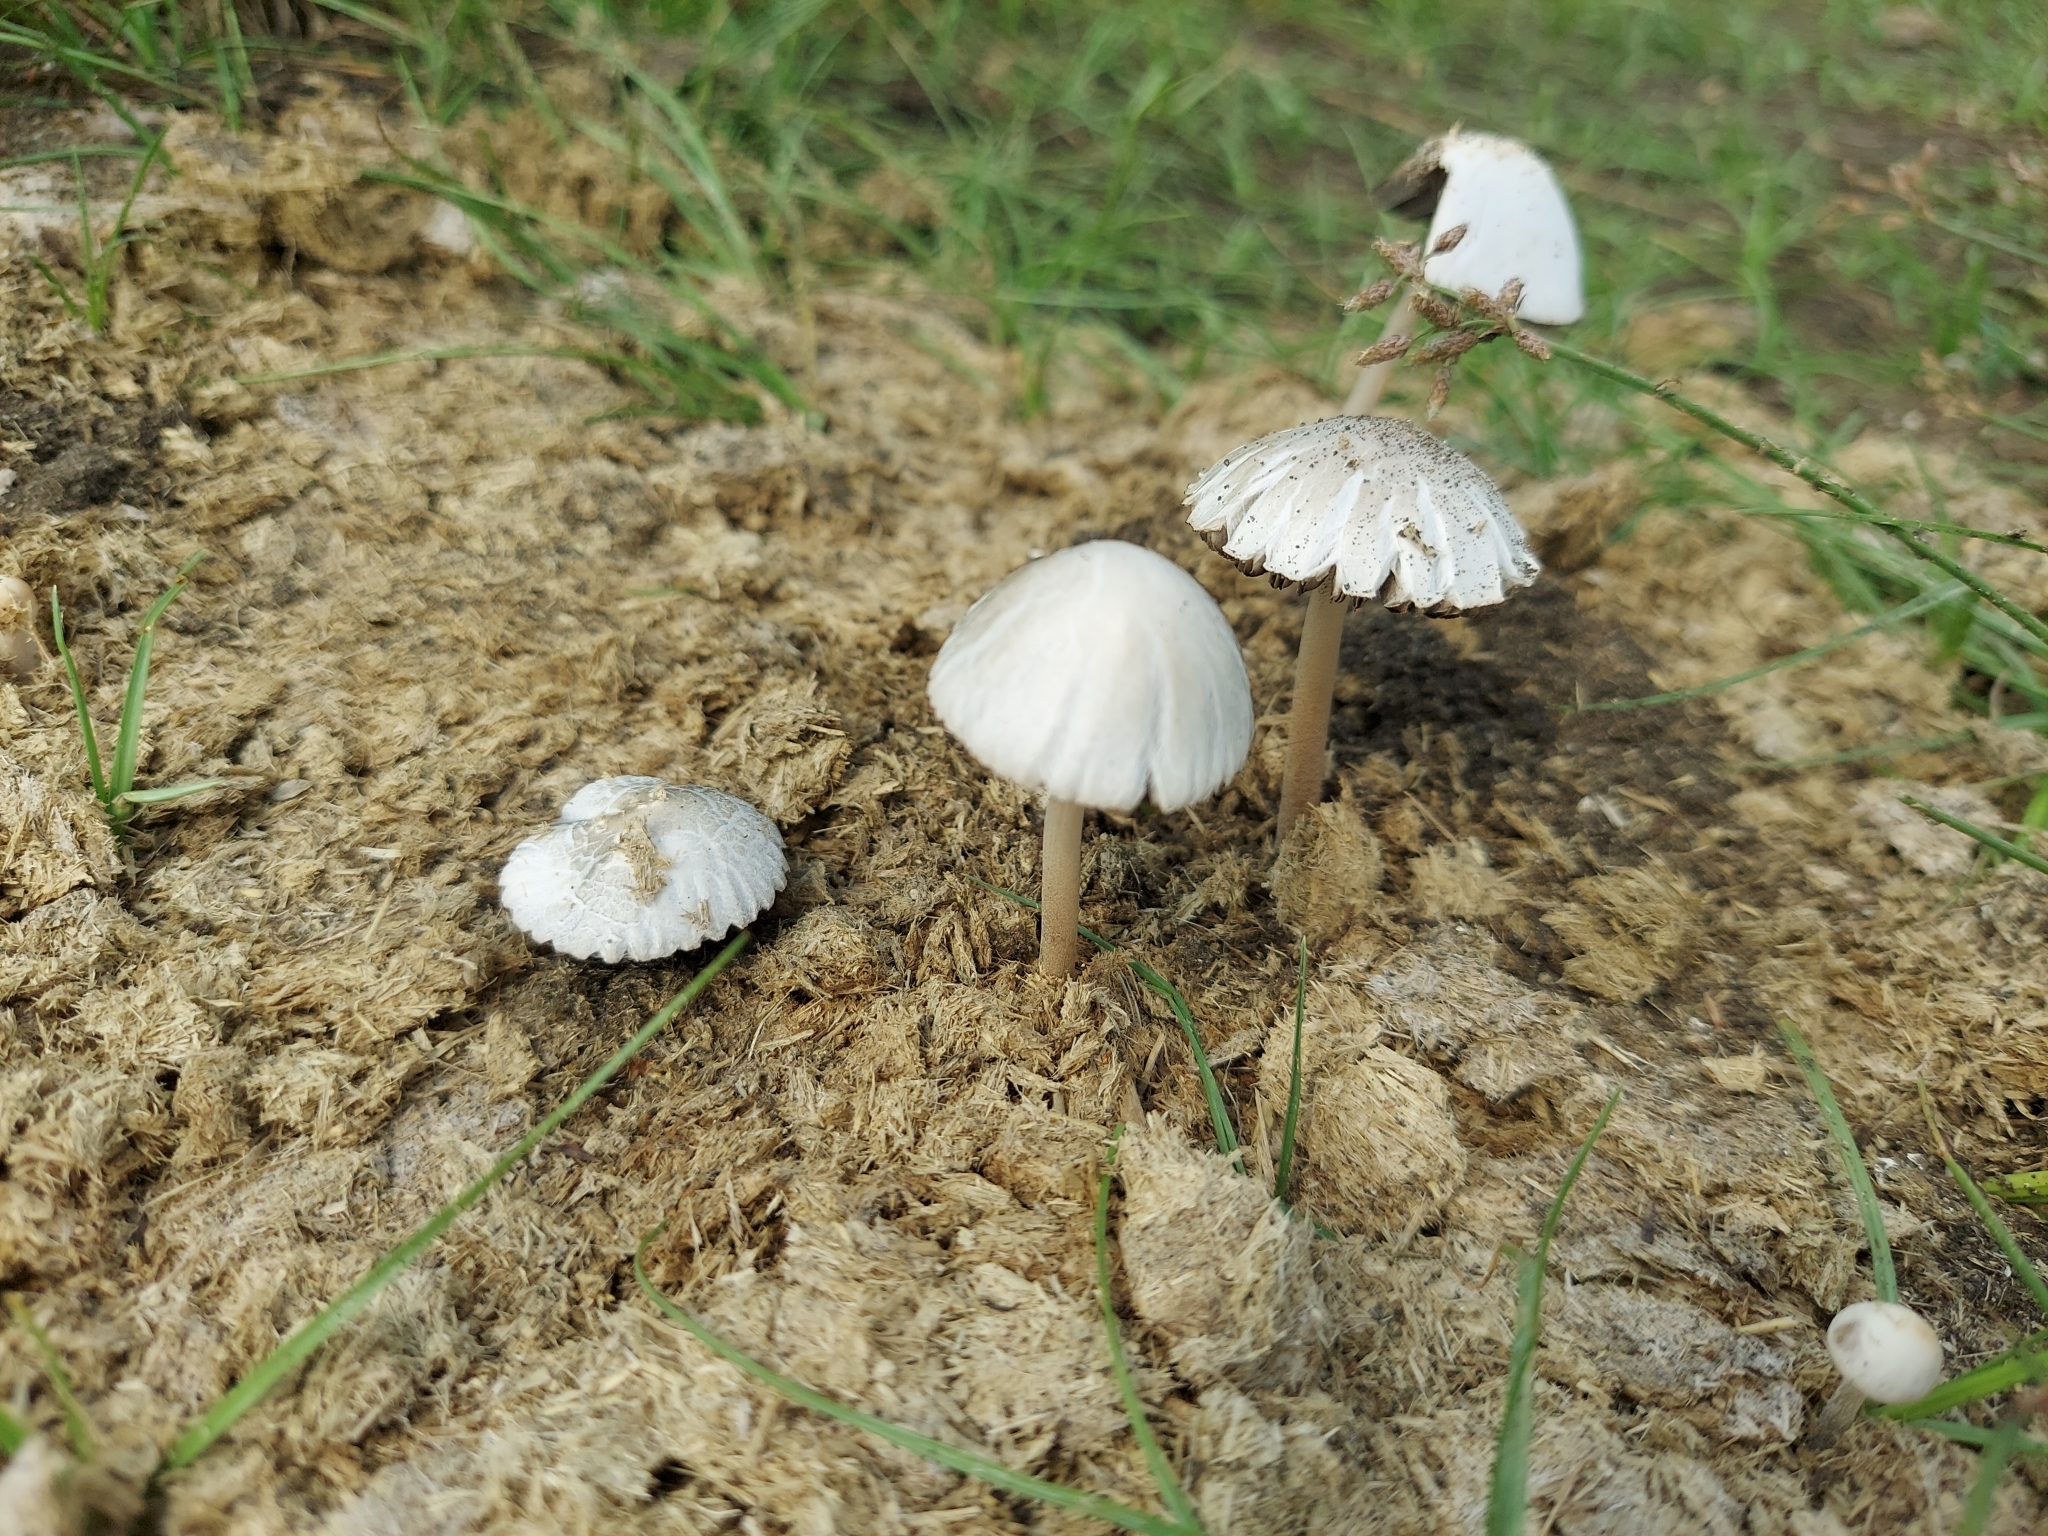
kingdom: Fungi
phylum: Basidiomycota
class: Agaricomycetes
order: Agaricales
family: Bolbitiaceae
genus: Panaeolus
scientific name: Panaeolus antillarum
